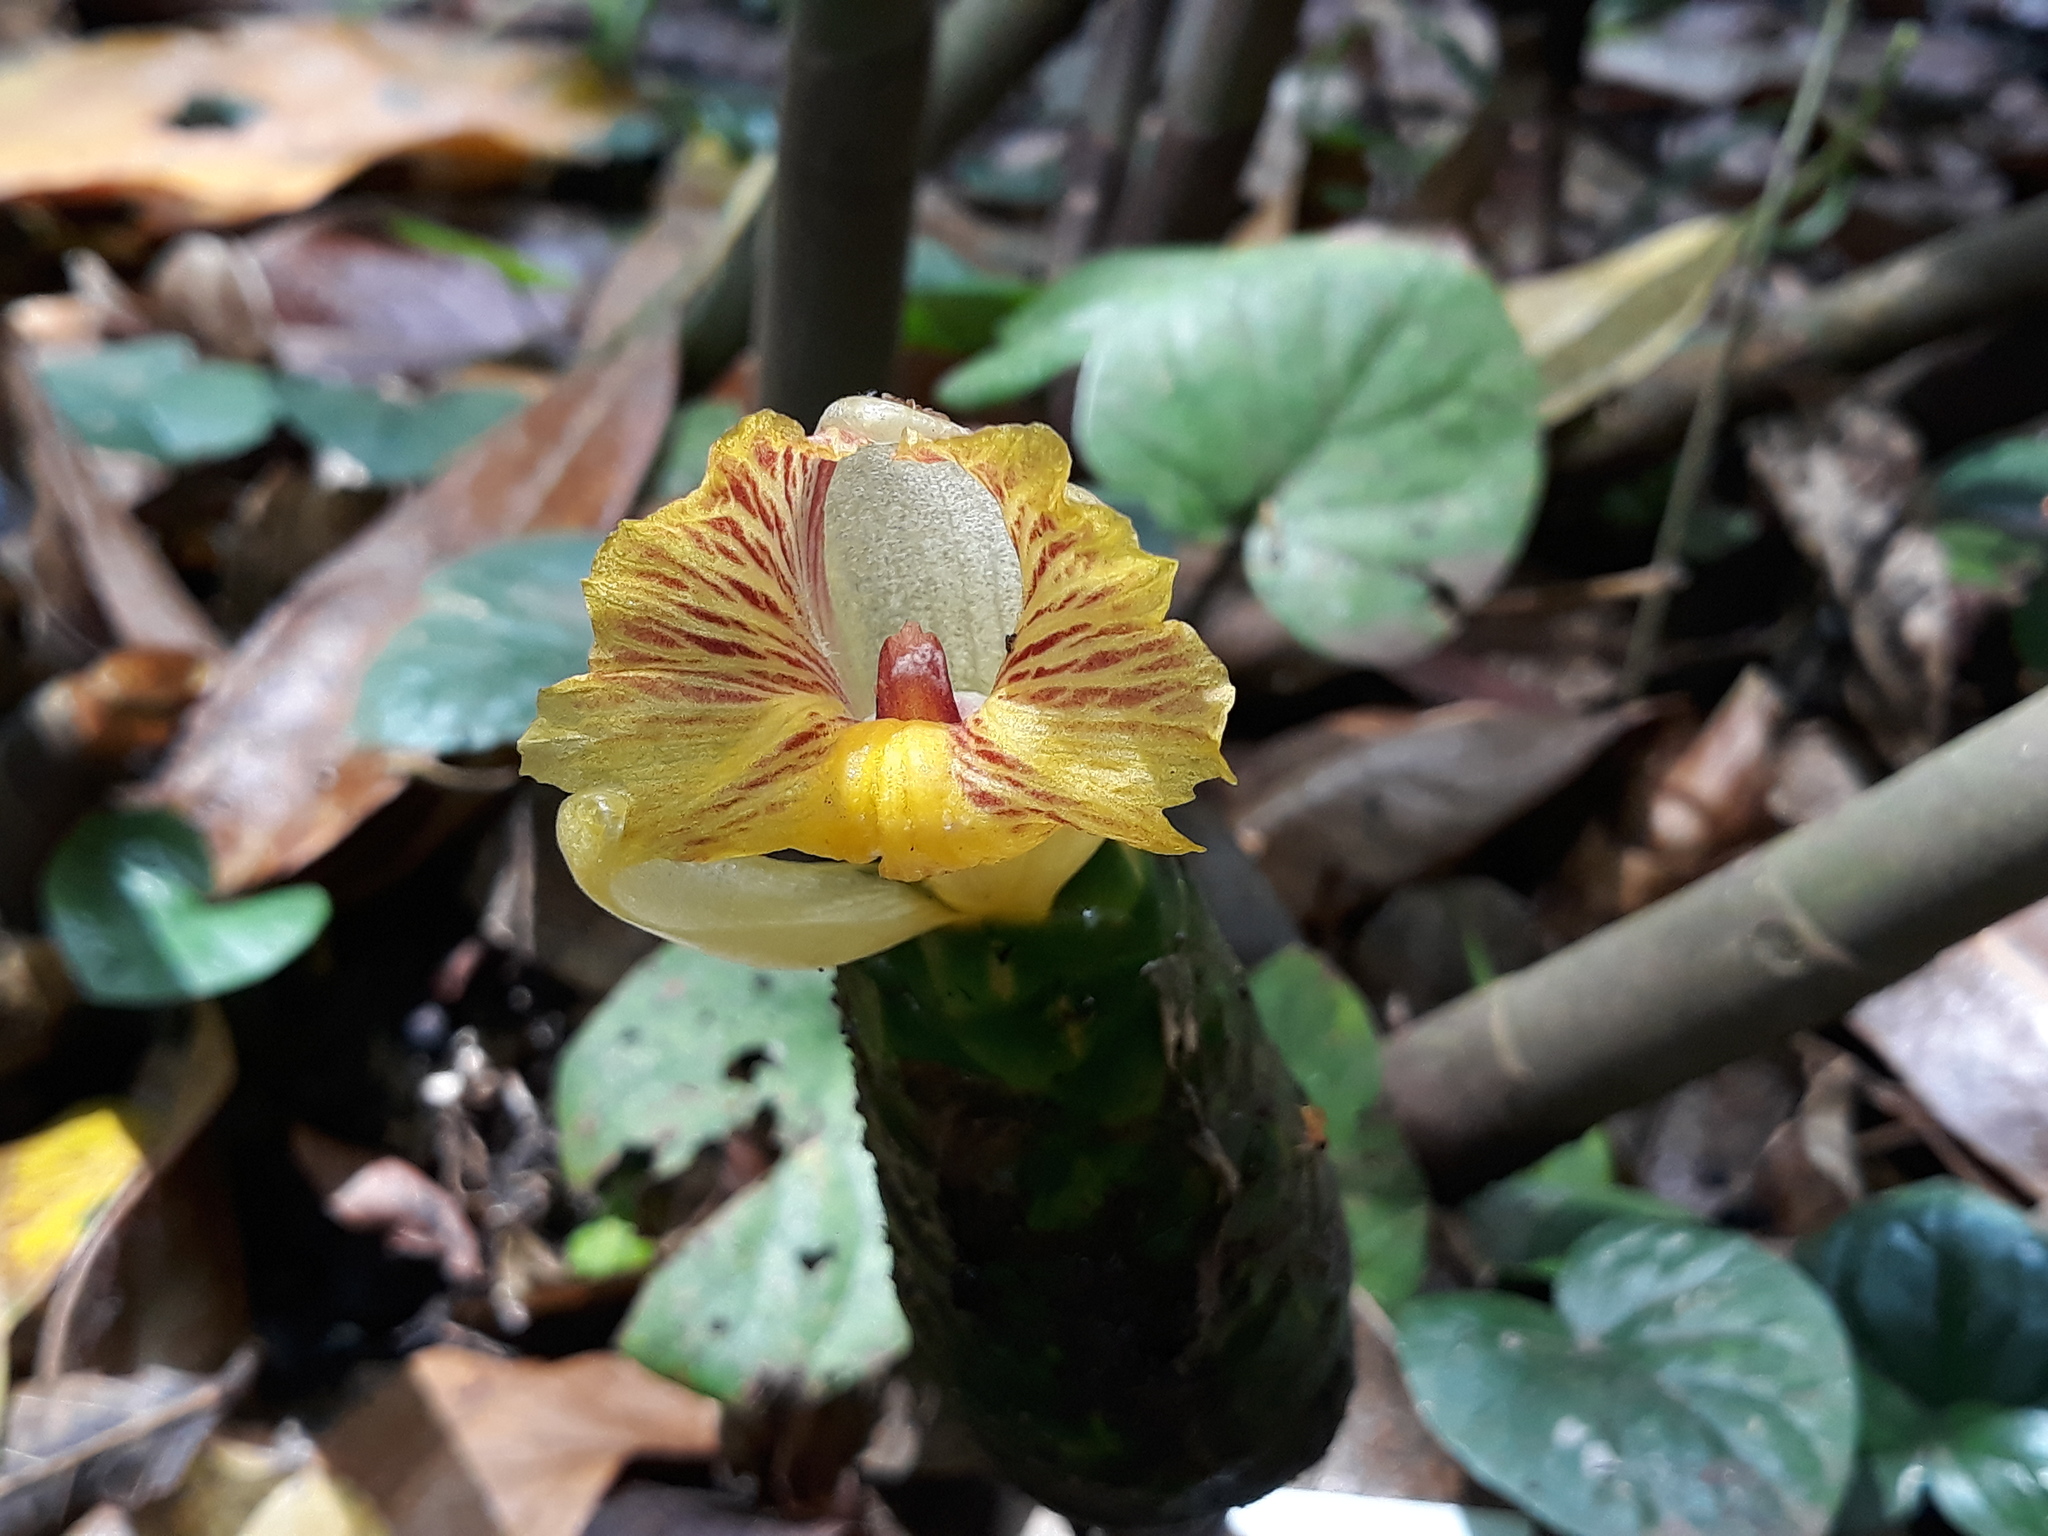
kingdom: Plantae
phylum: Tracheophyta
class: Liliopsida
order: Zingiberales
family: Costaceae
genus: Costus
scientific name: Costus dirzoi
